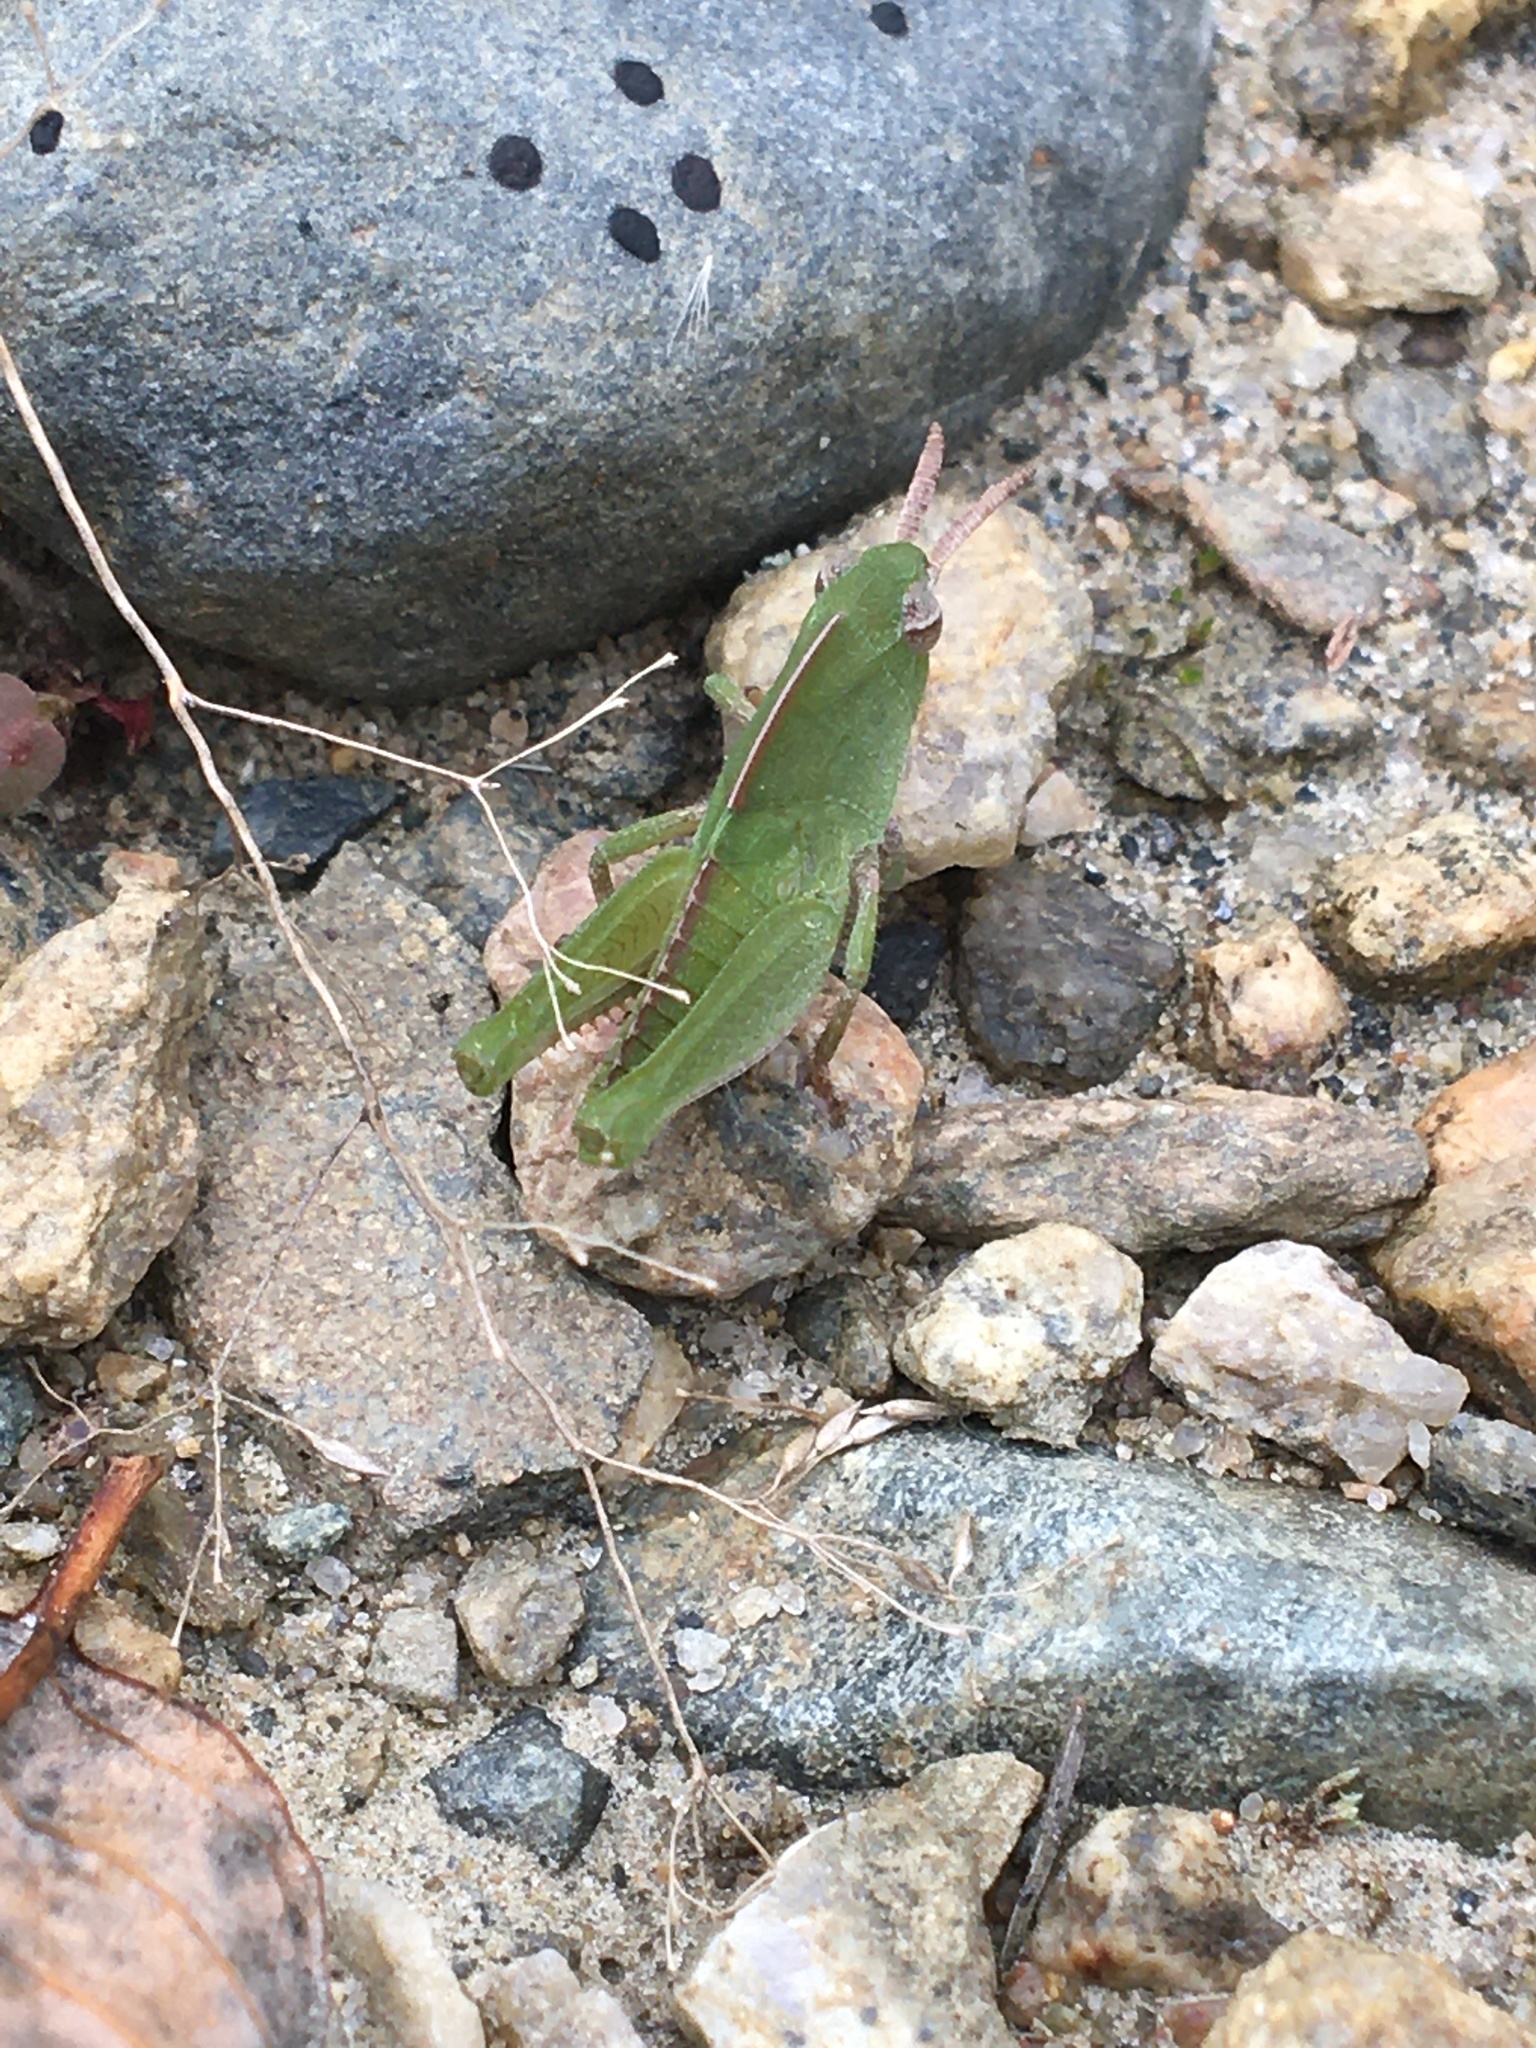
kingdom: Animalia
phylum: Arthropoda
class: Insecta
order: Orthoptera
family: Acrididae
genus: Chortophaga
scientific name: Chortophaga viridifasciata
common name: Green-striped grasshopper
